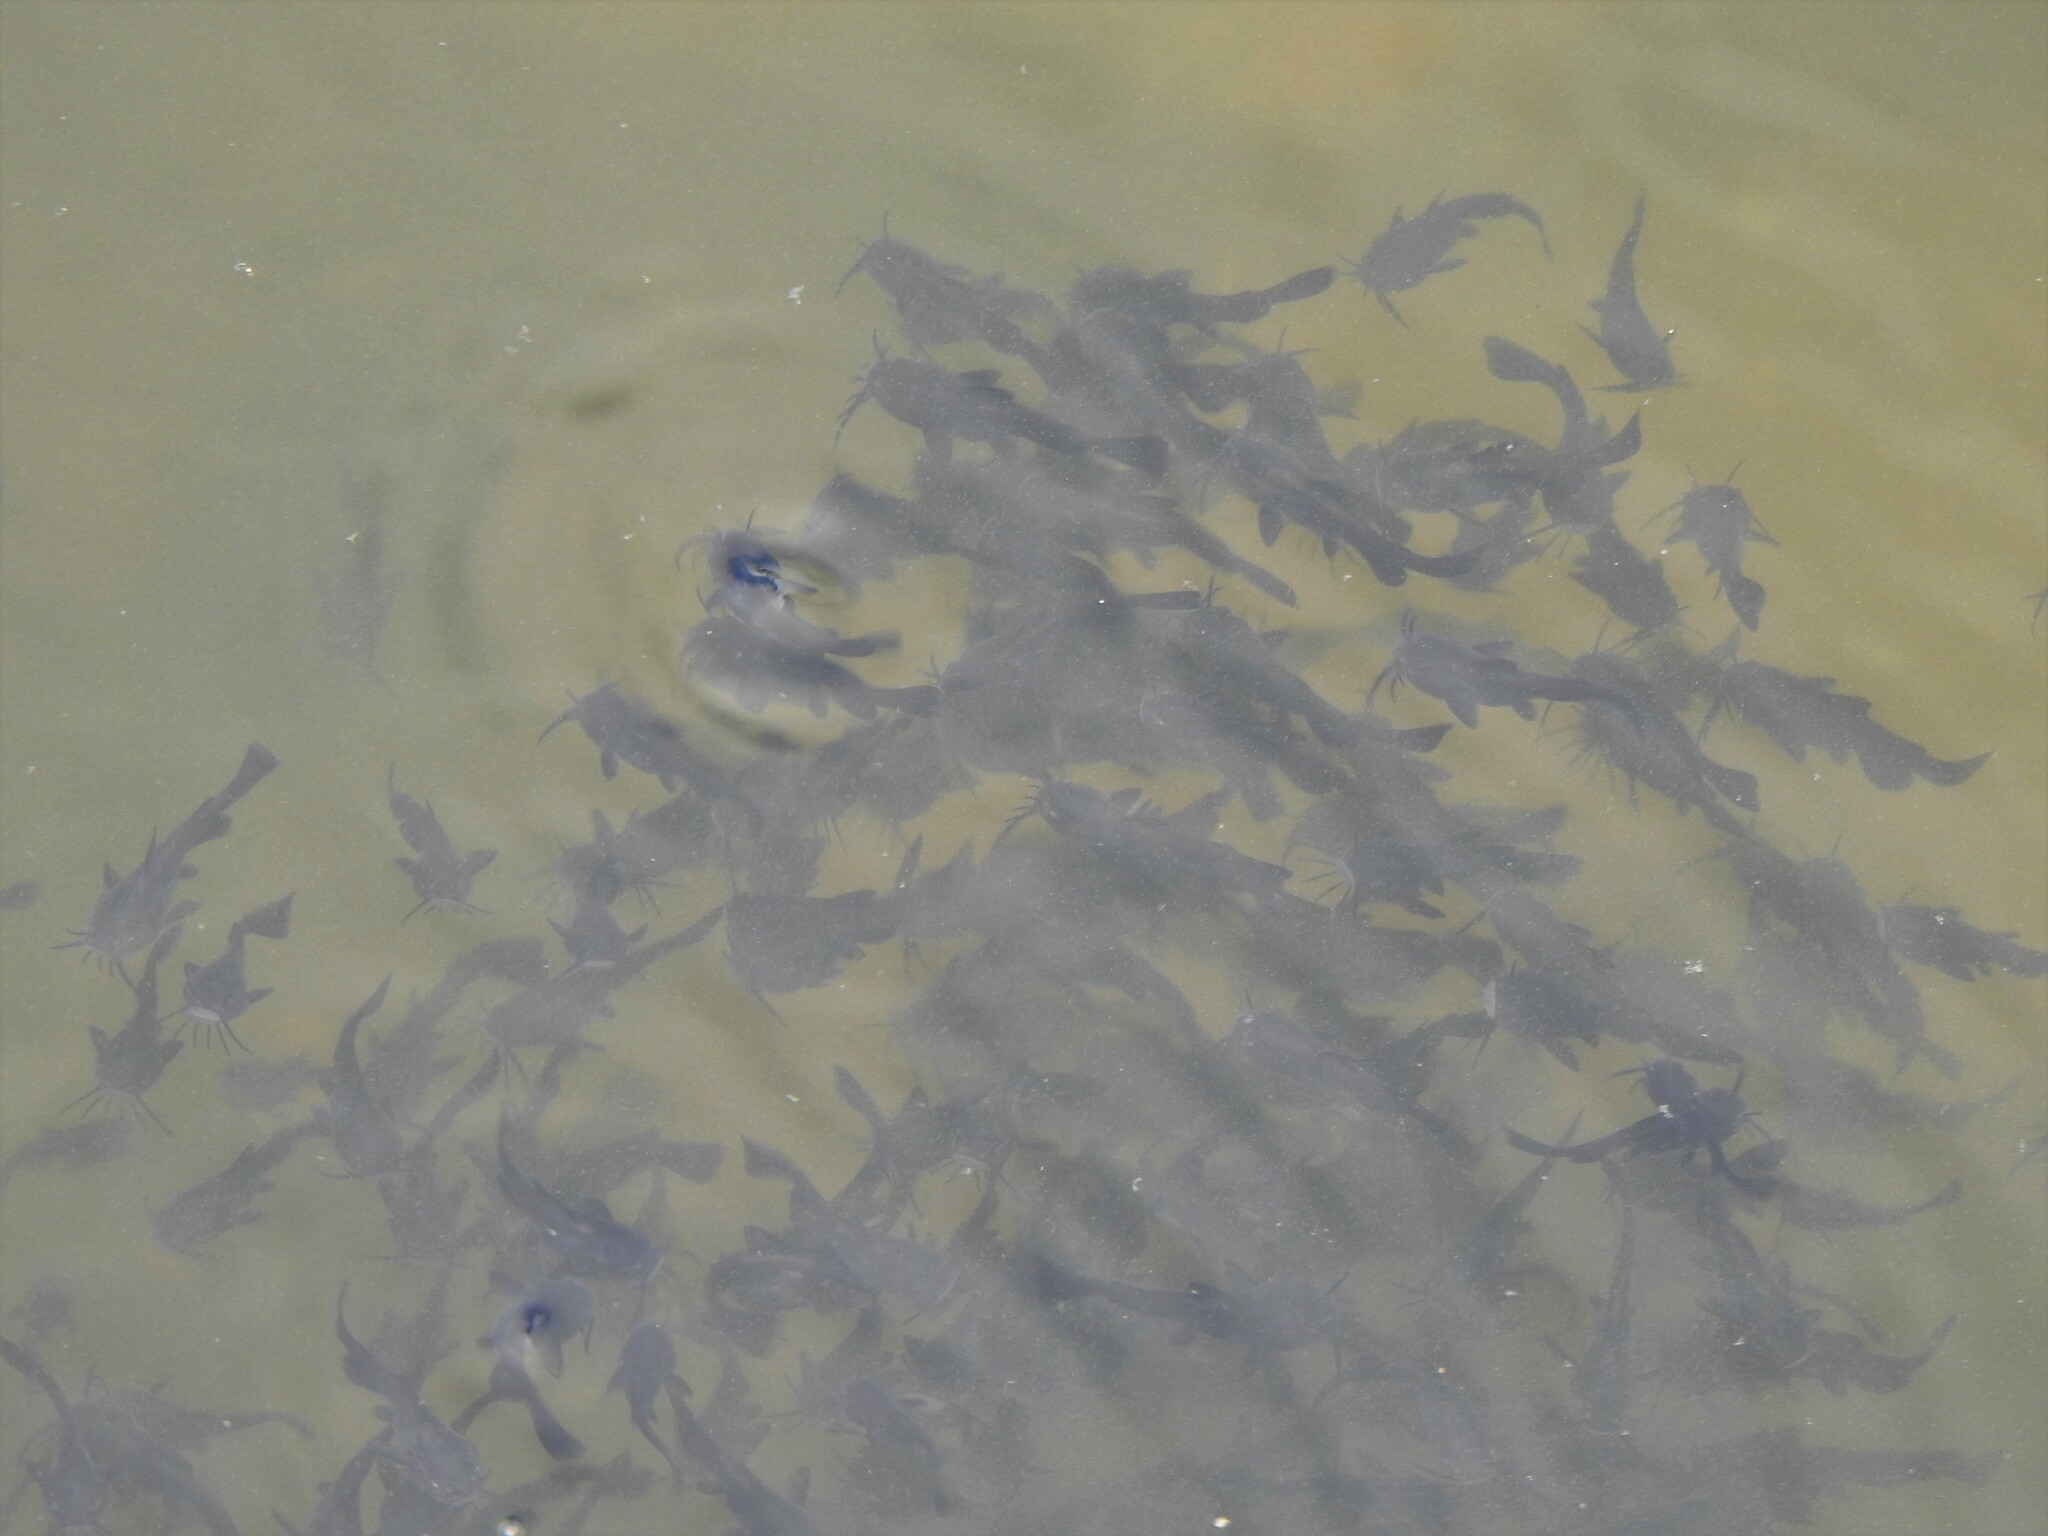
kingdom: Animalia
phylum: Chordata
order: Siluriformes
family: Ictaluridae
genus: Ameiurus
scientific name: Ameiurus melas
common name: Black bullhead
